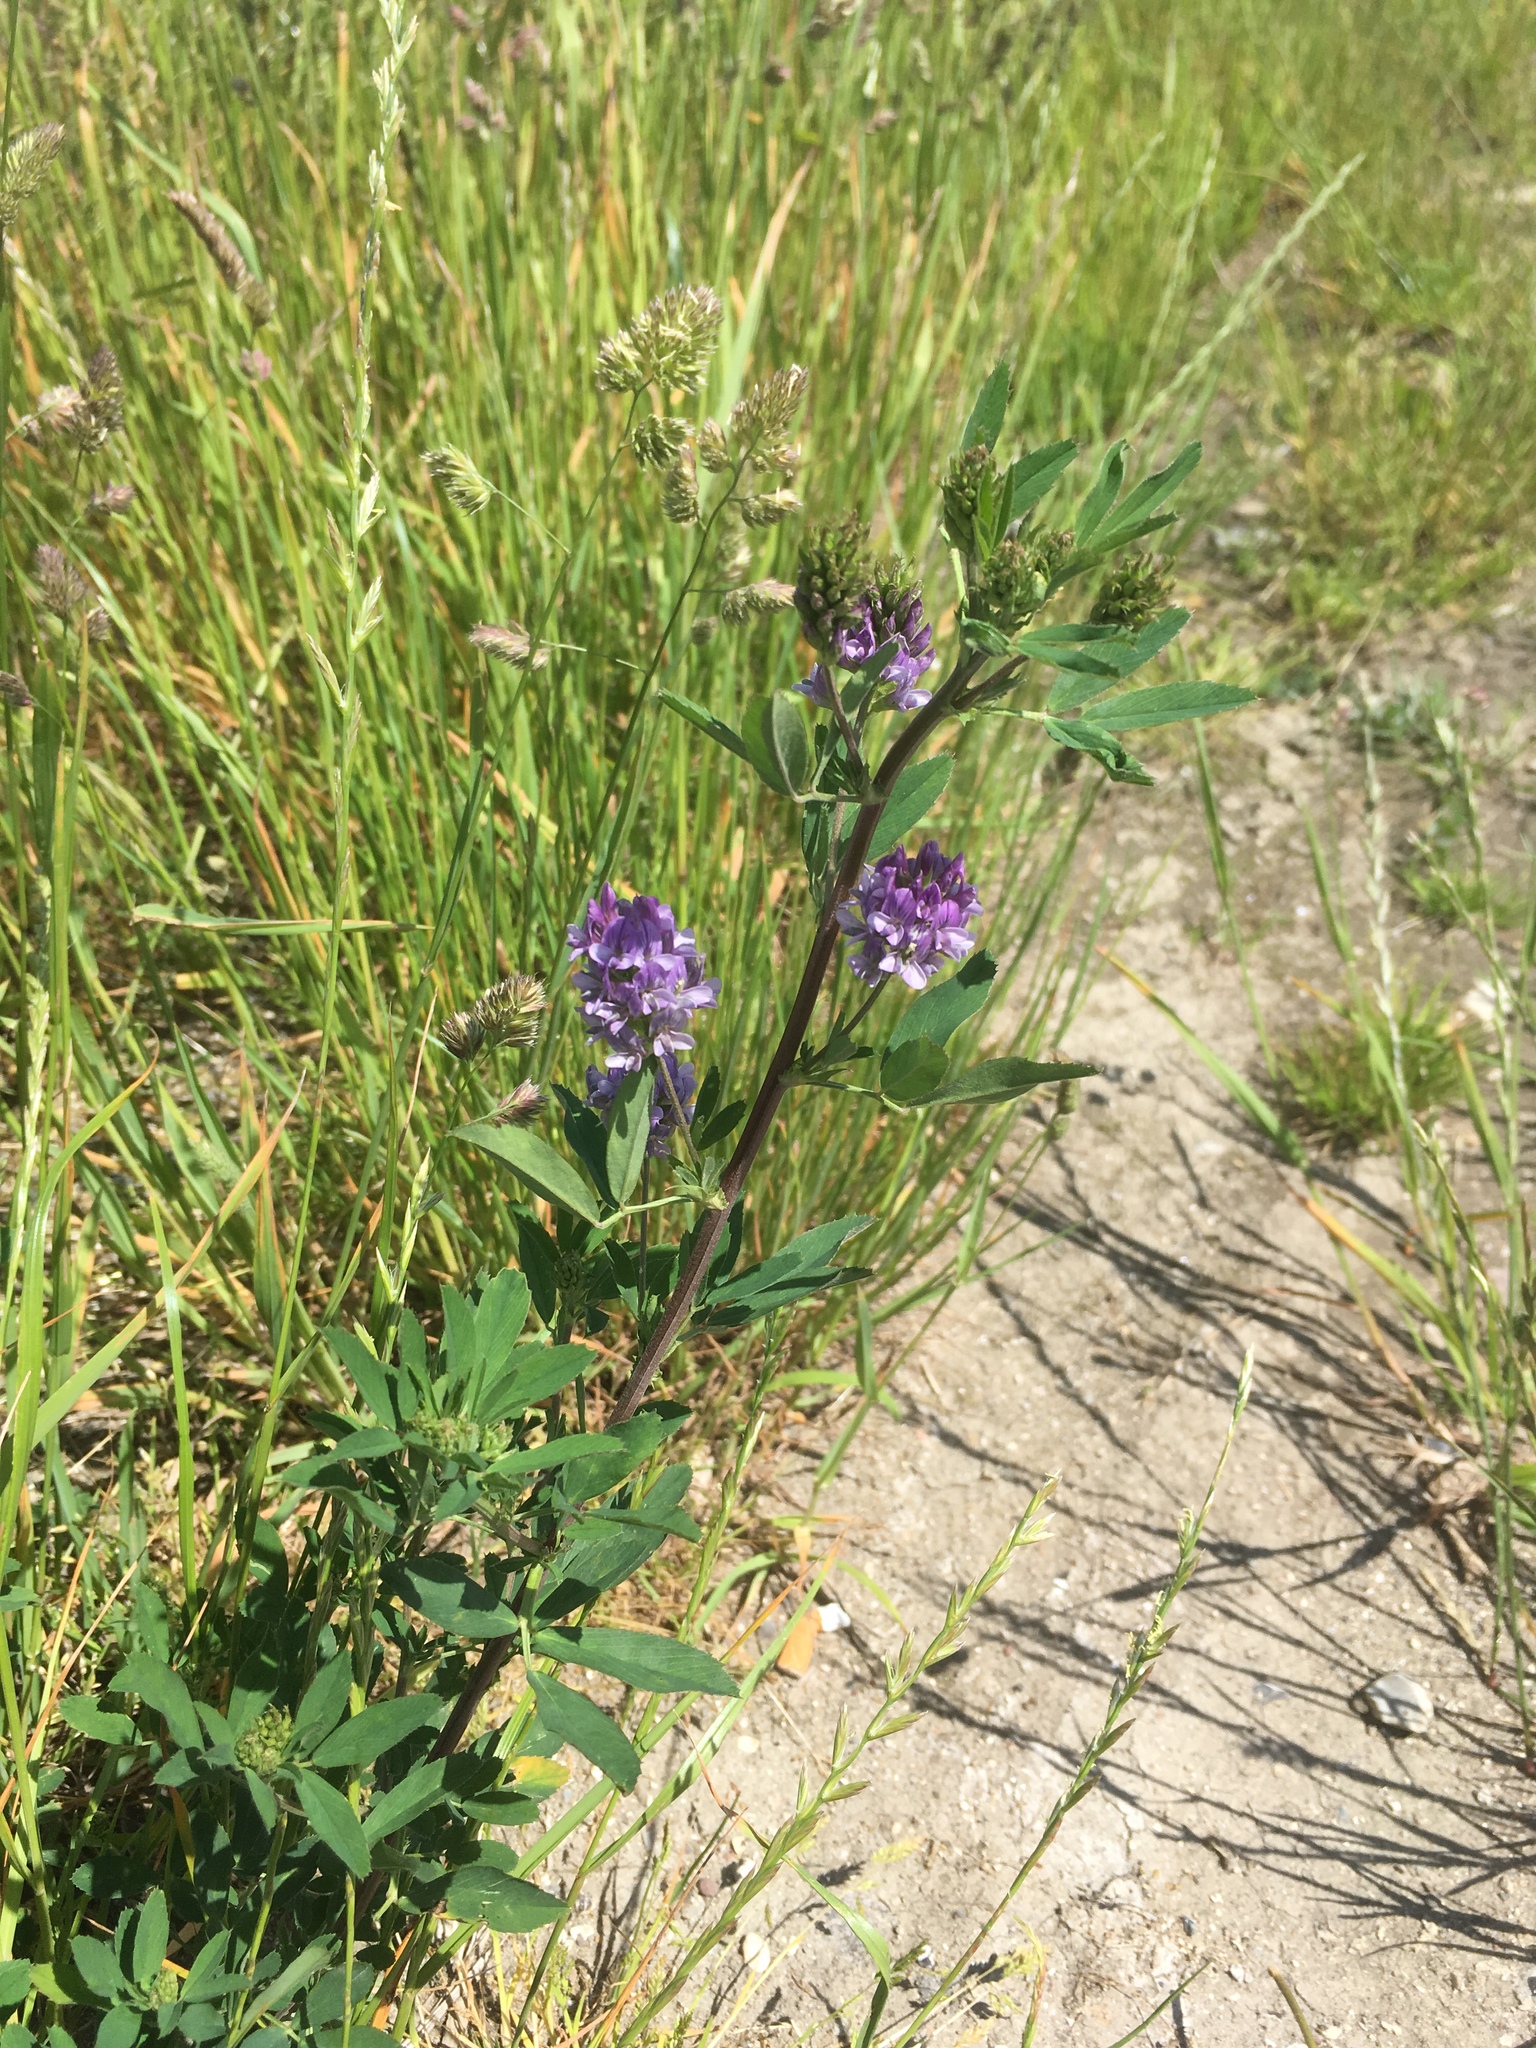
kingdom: Plantae
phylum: Tracheophyta
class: Magnoliopsida
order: Fabales
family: Fabaceae
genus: Medicago
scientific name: Medicago sativa
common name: Alfalfa
